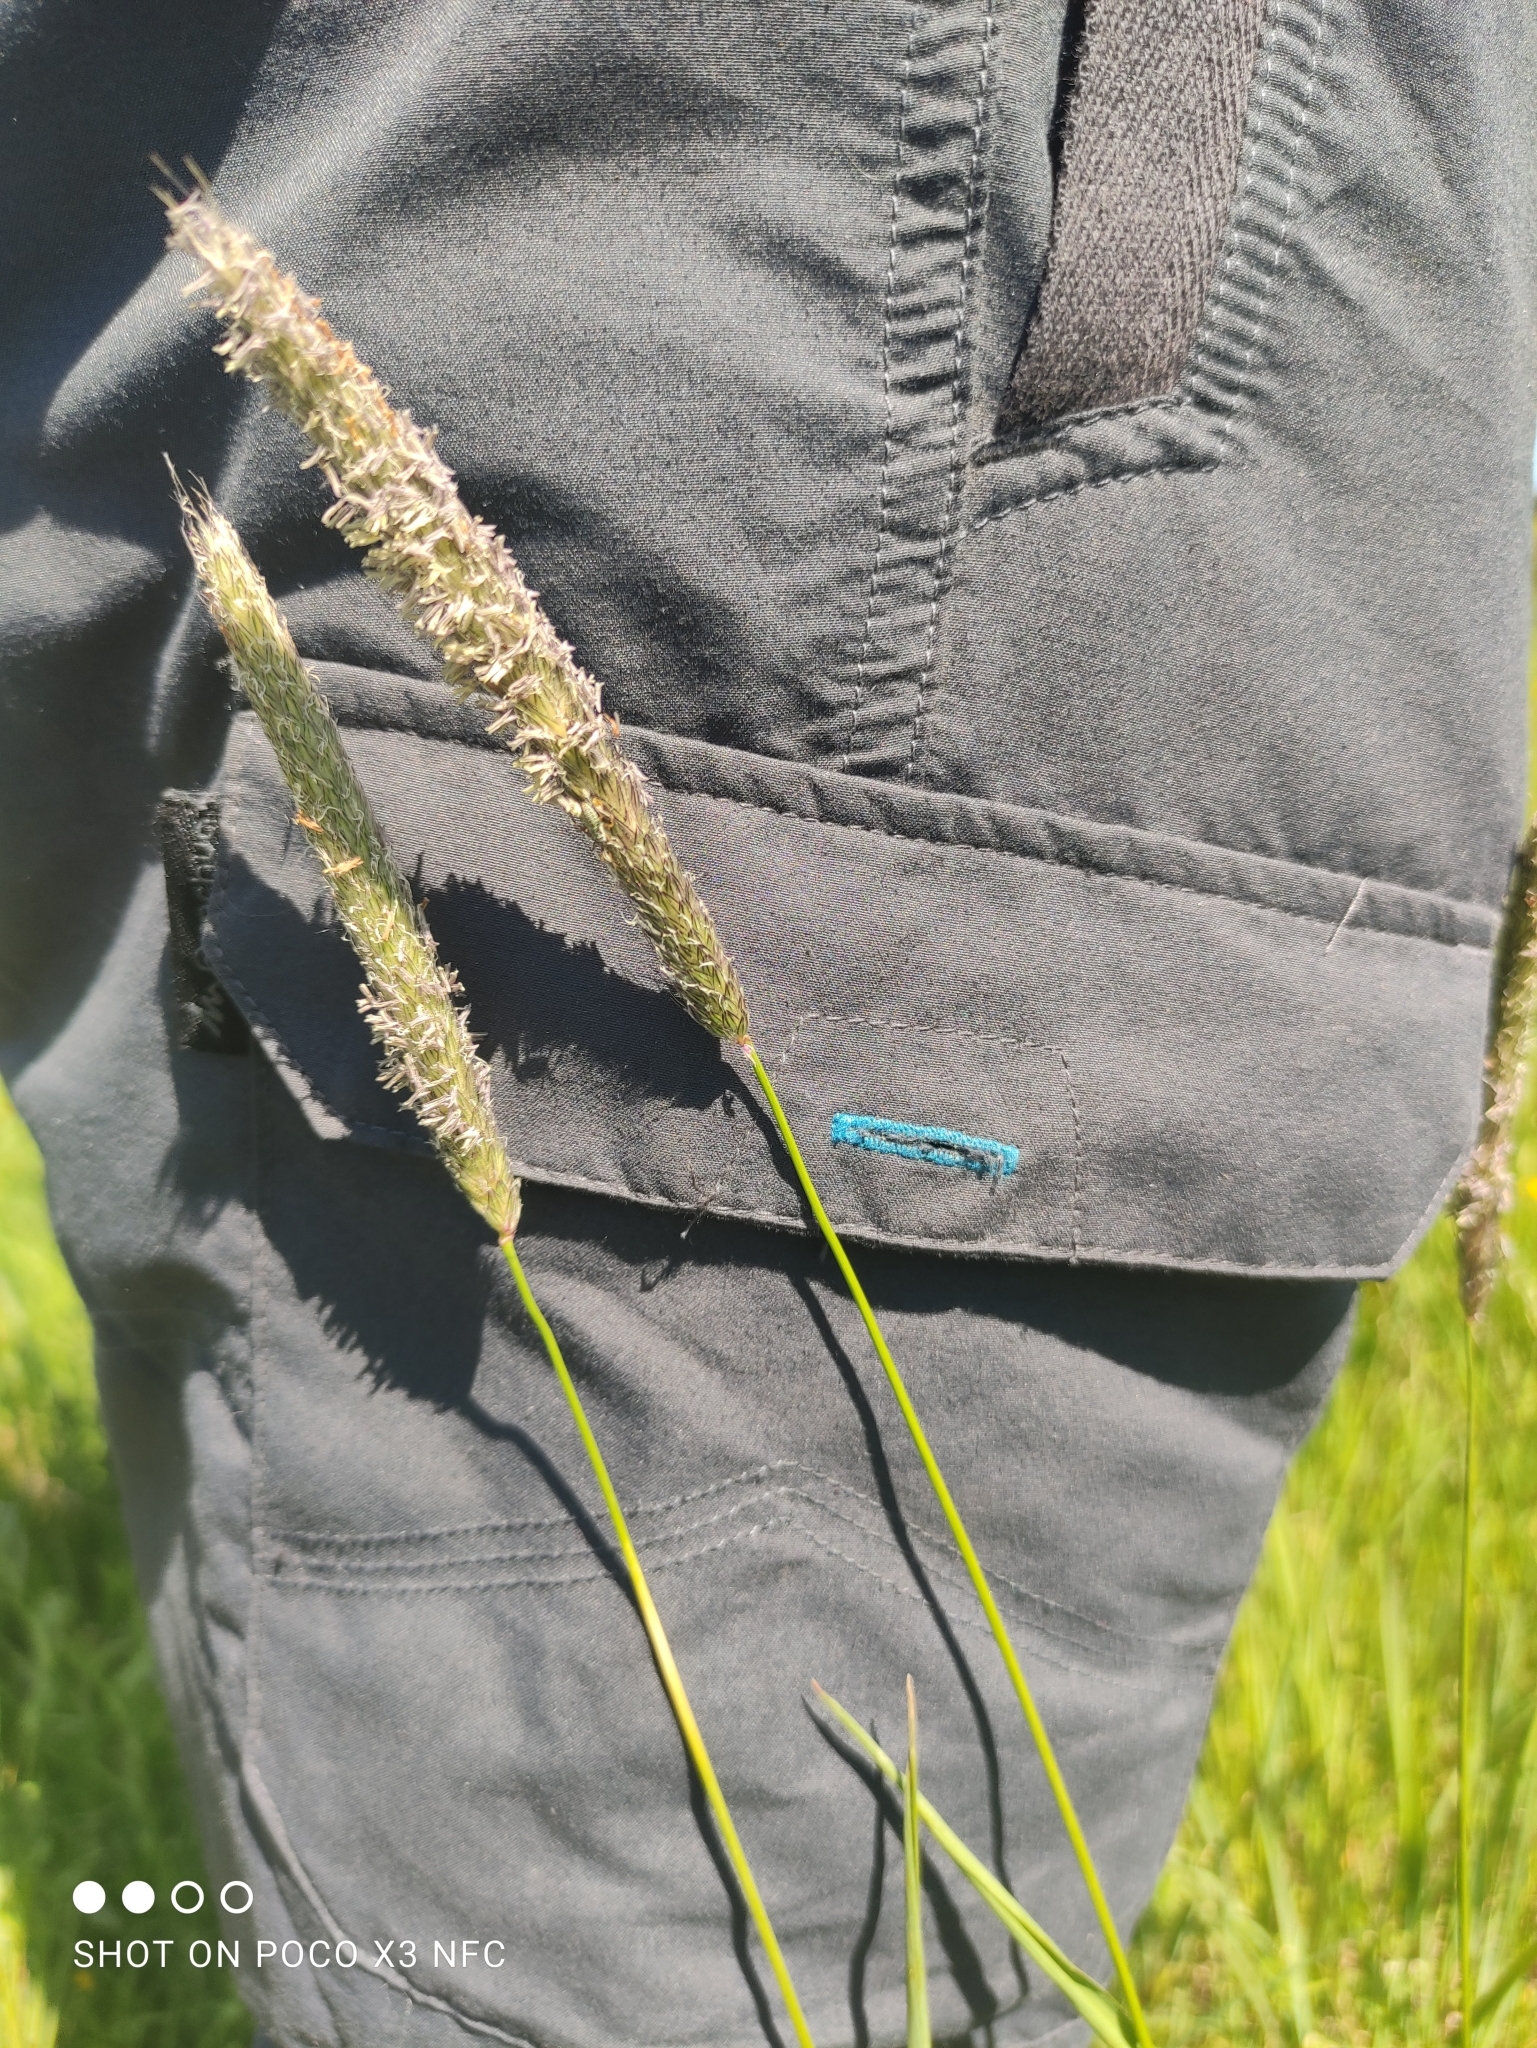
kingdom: Plantae
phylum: Tracheophyta
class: Liliopsida
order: Poales
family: Poaceae
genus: Alopecurus
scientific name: Alopecurus pratensis
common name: Meadow foxtail
